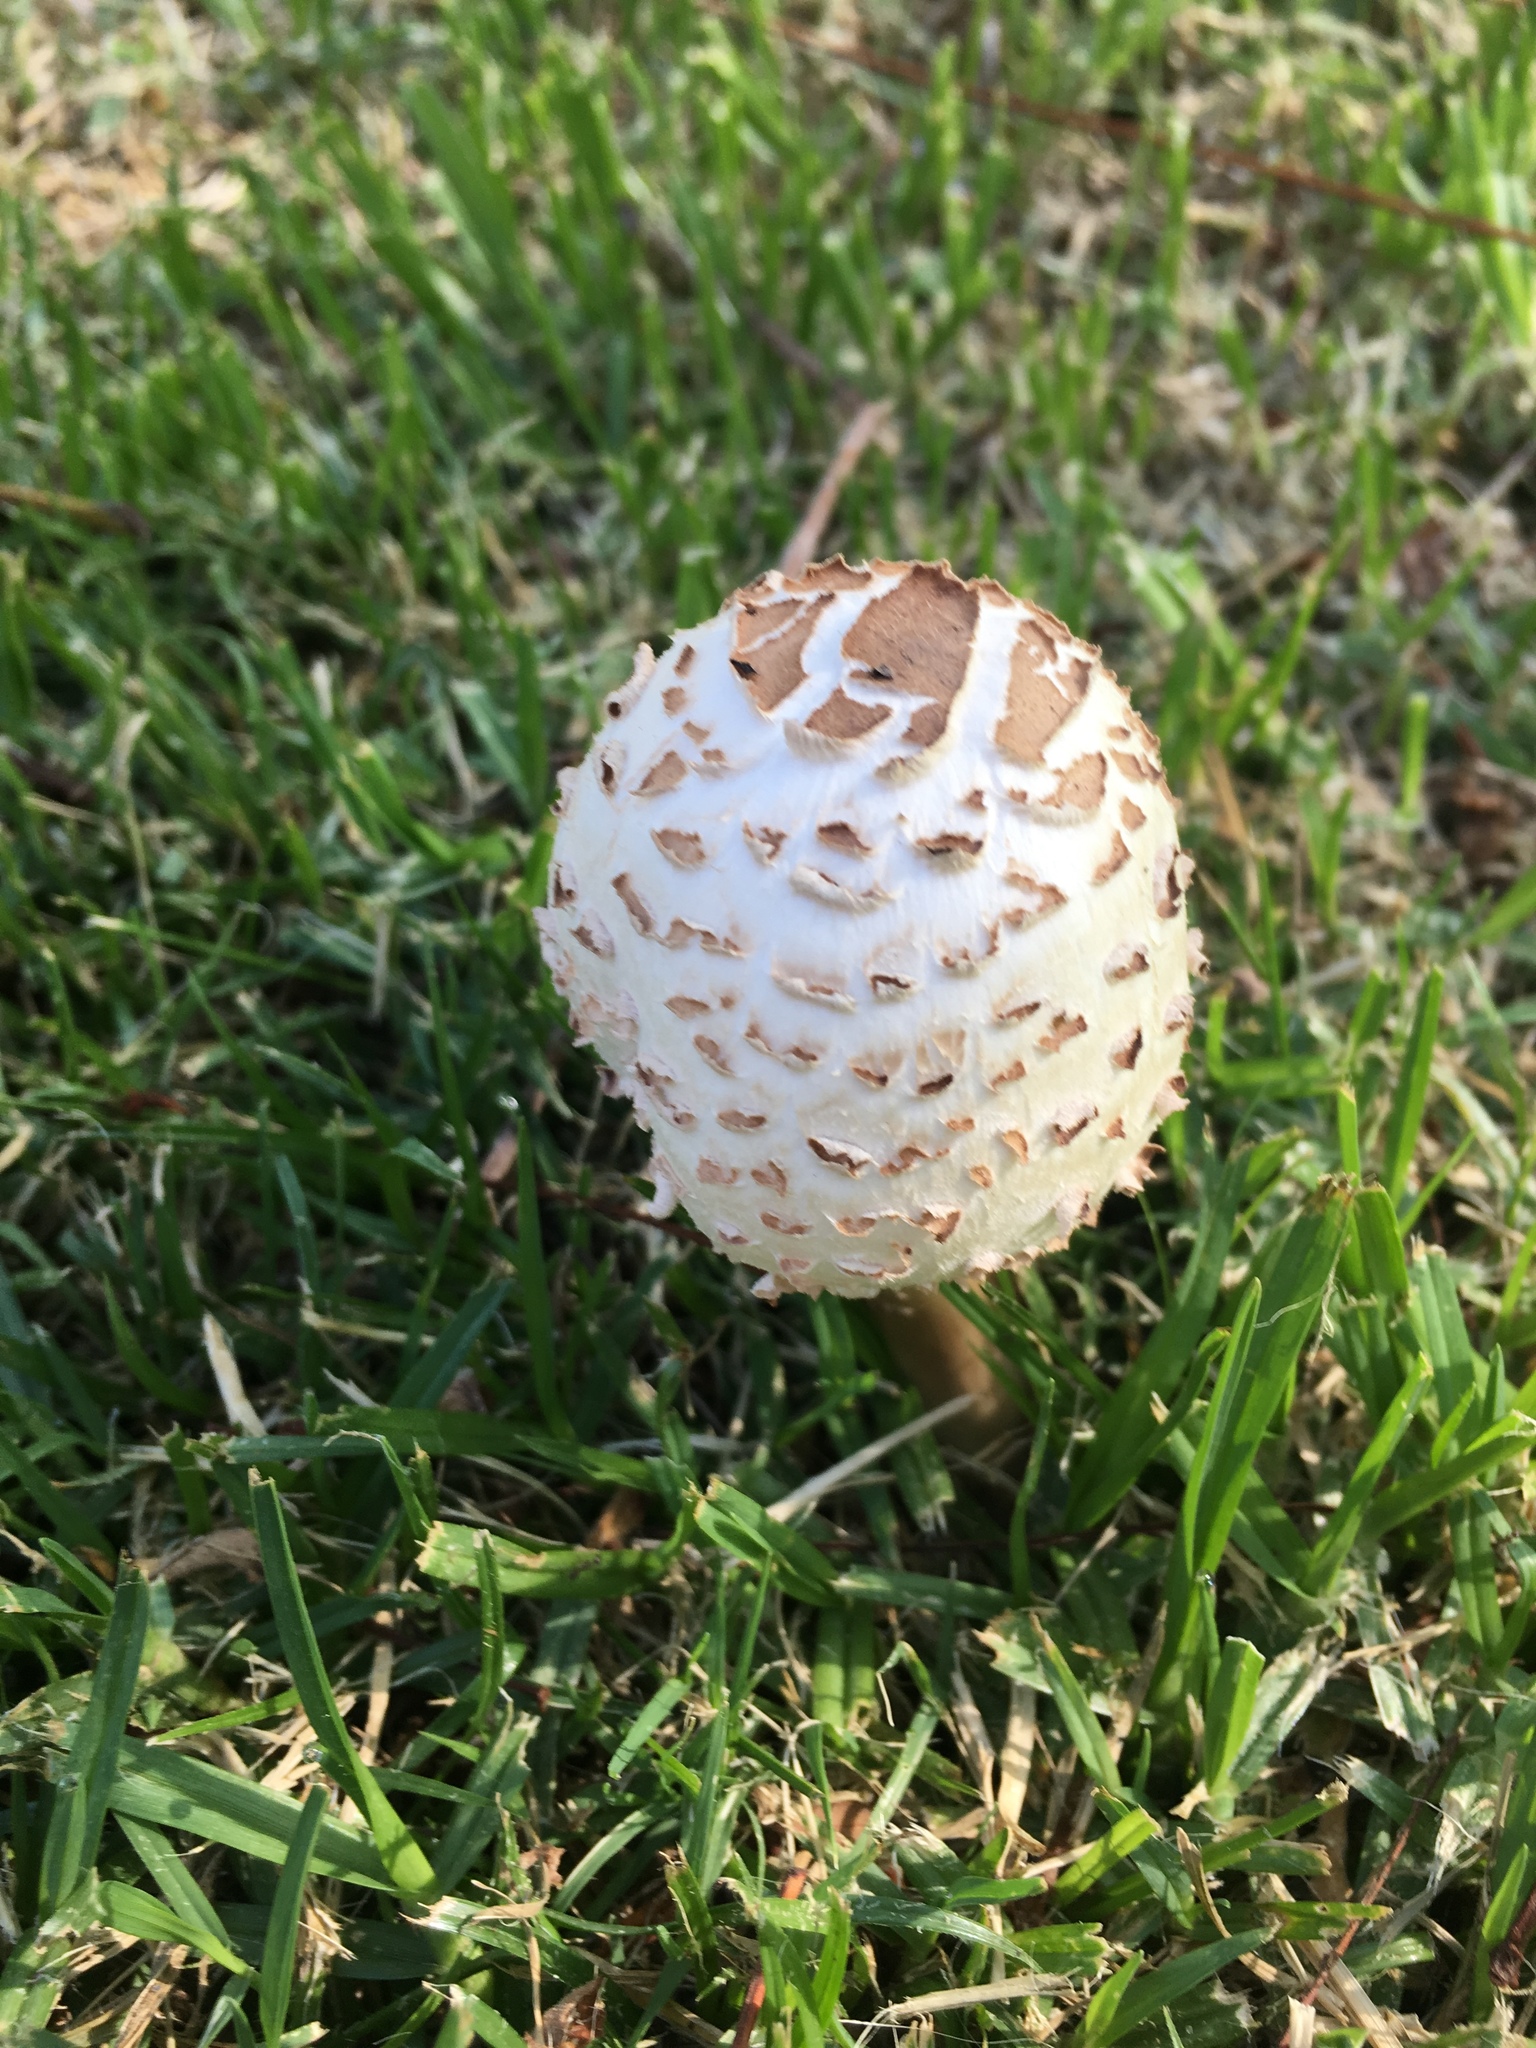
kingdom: Fungi
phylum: Basidiomycota
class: Agaricomycetes
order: Agaricales
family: Agaricaceae
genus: Chlorophyllum
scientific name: Chlorophyllum molybdites
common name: False parasol
